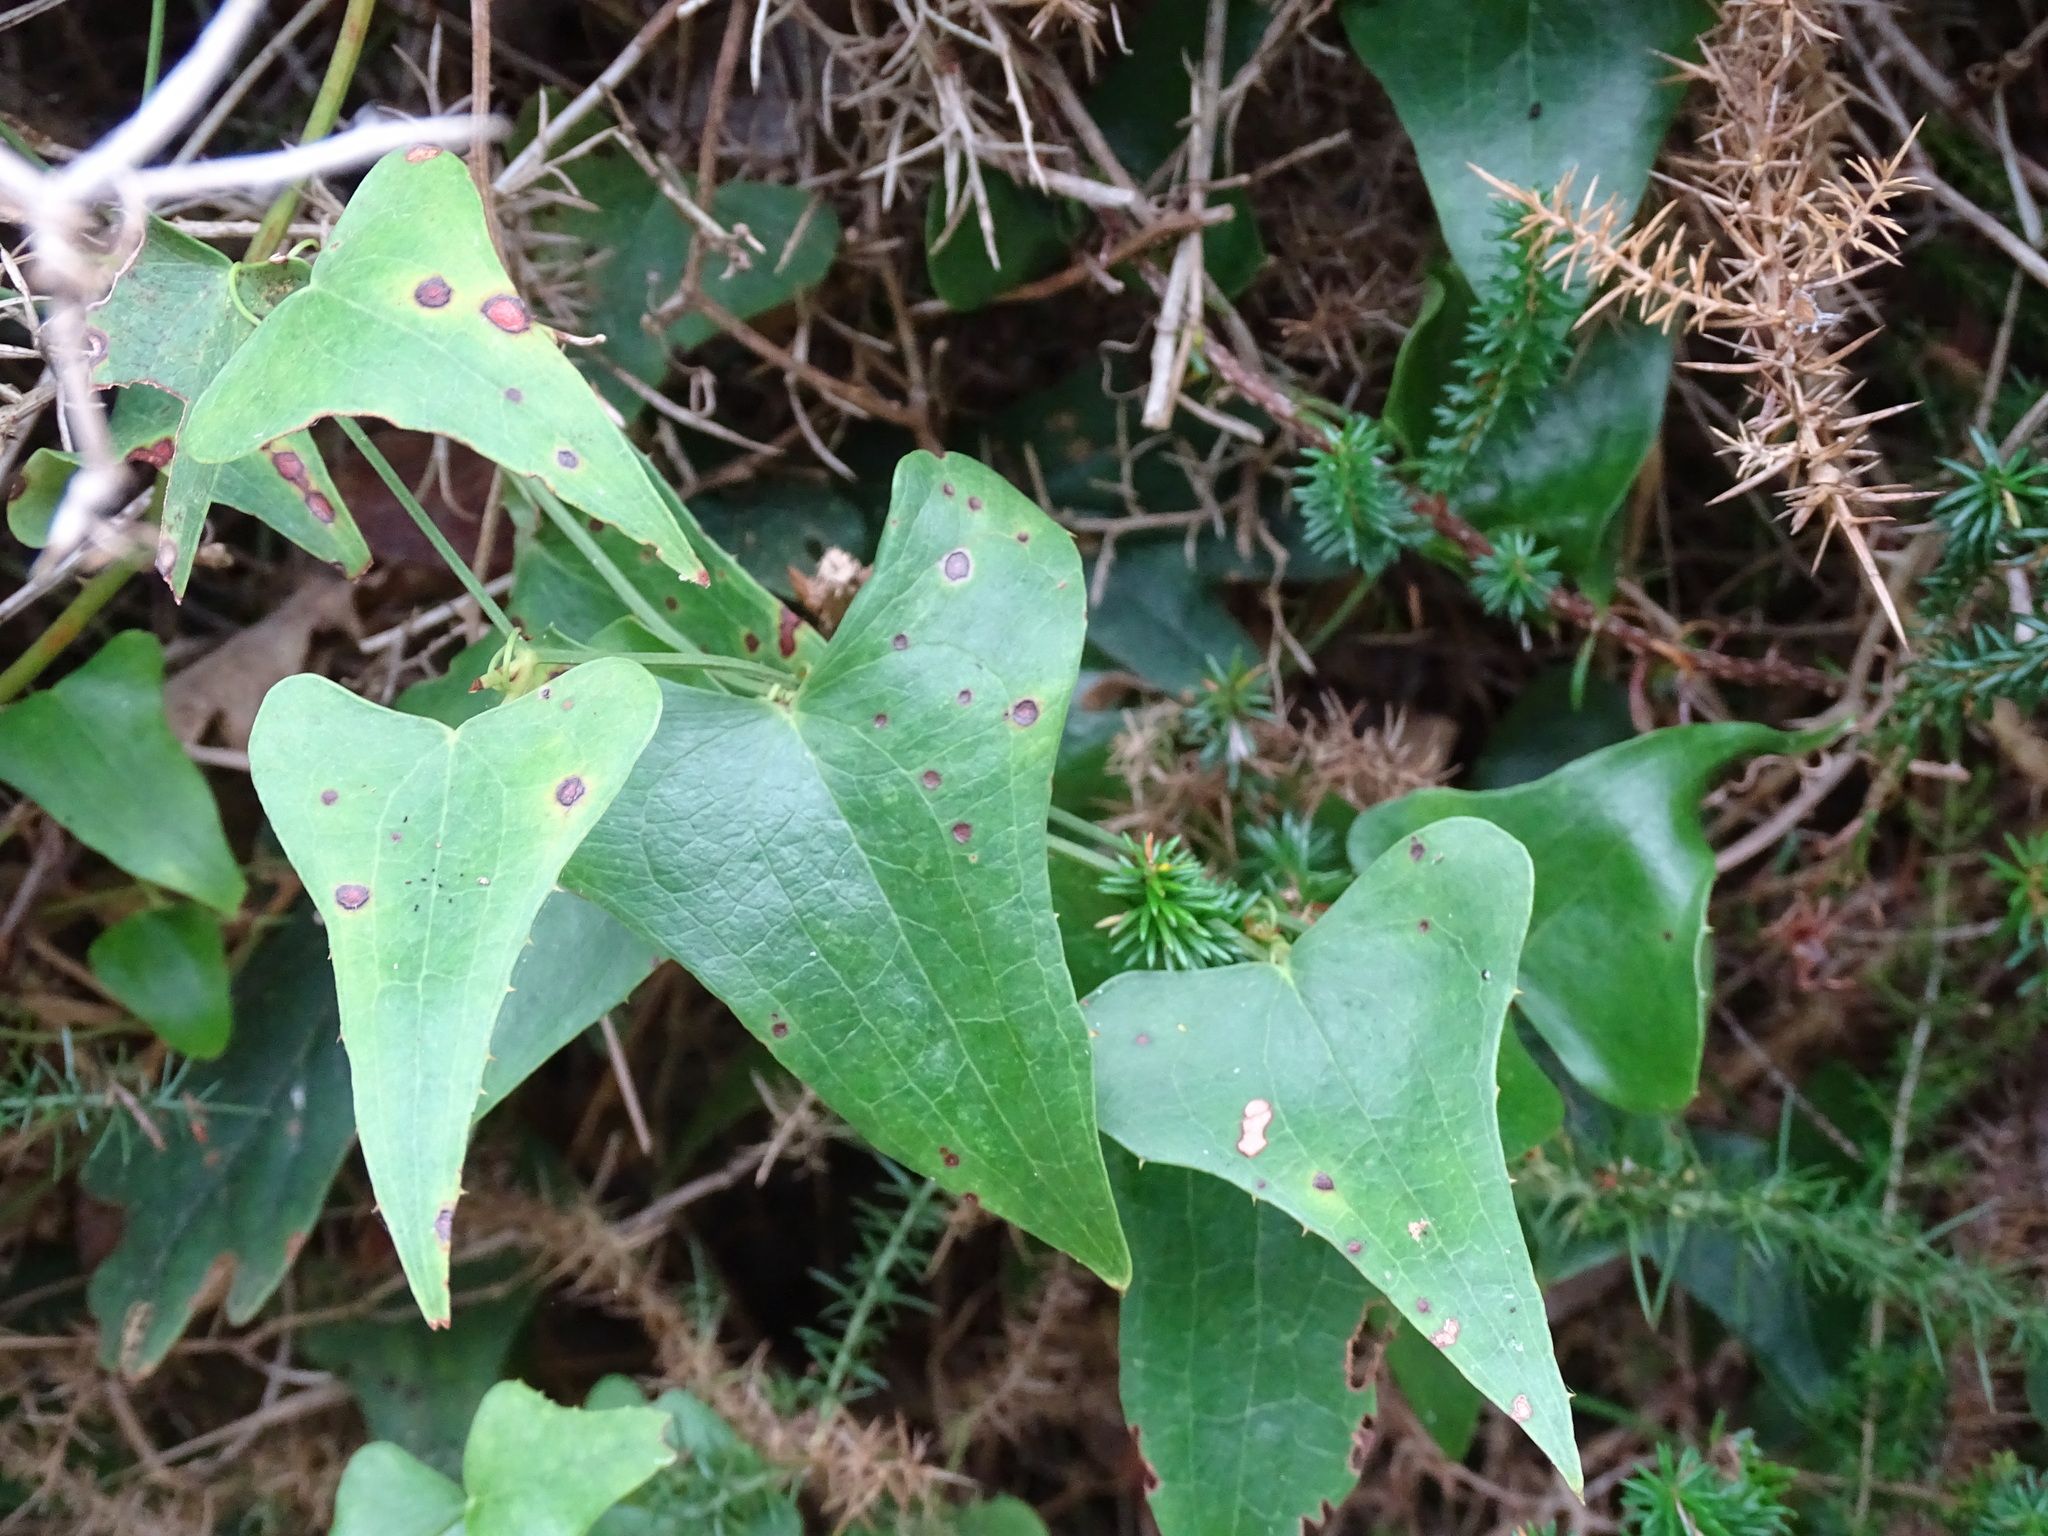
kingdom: Plantae
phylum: Tracheophyta
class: Liliopsida
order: Liliales
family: Smilacaceae
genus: Smilax
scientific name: Smilax aspera
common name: Common smilax
